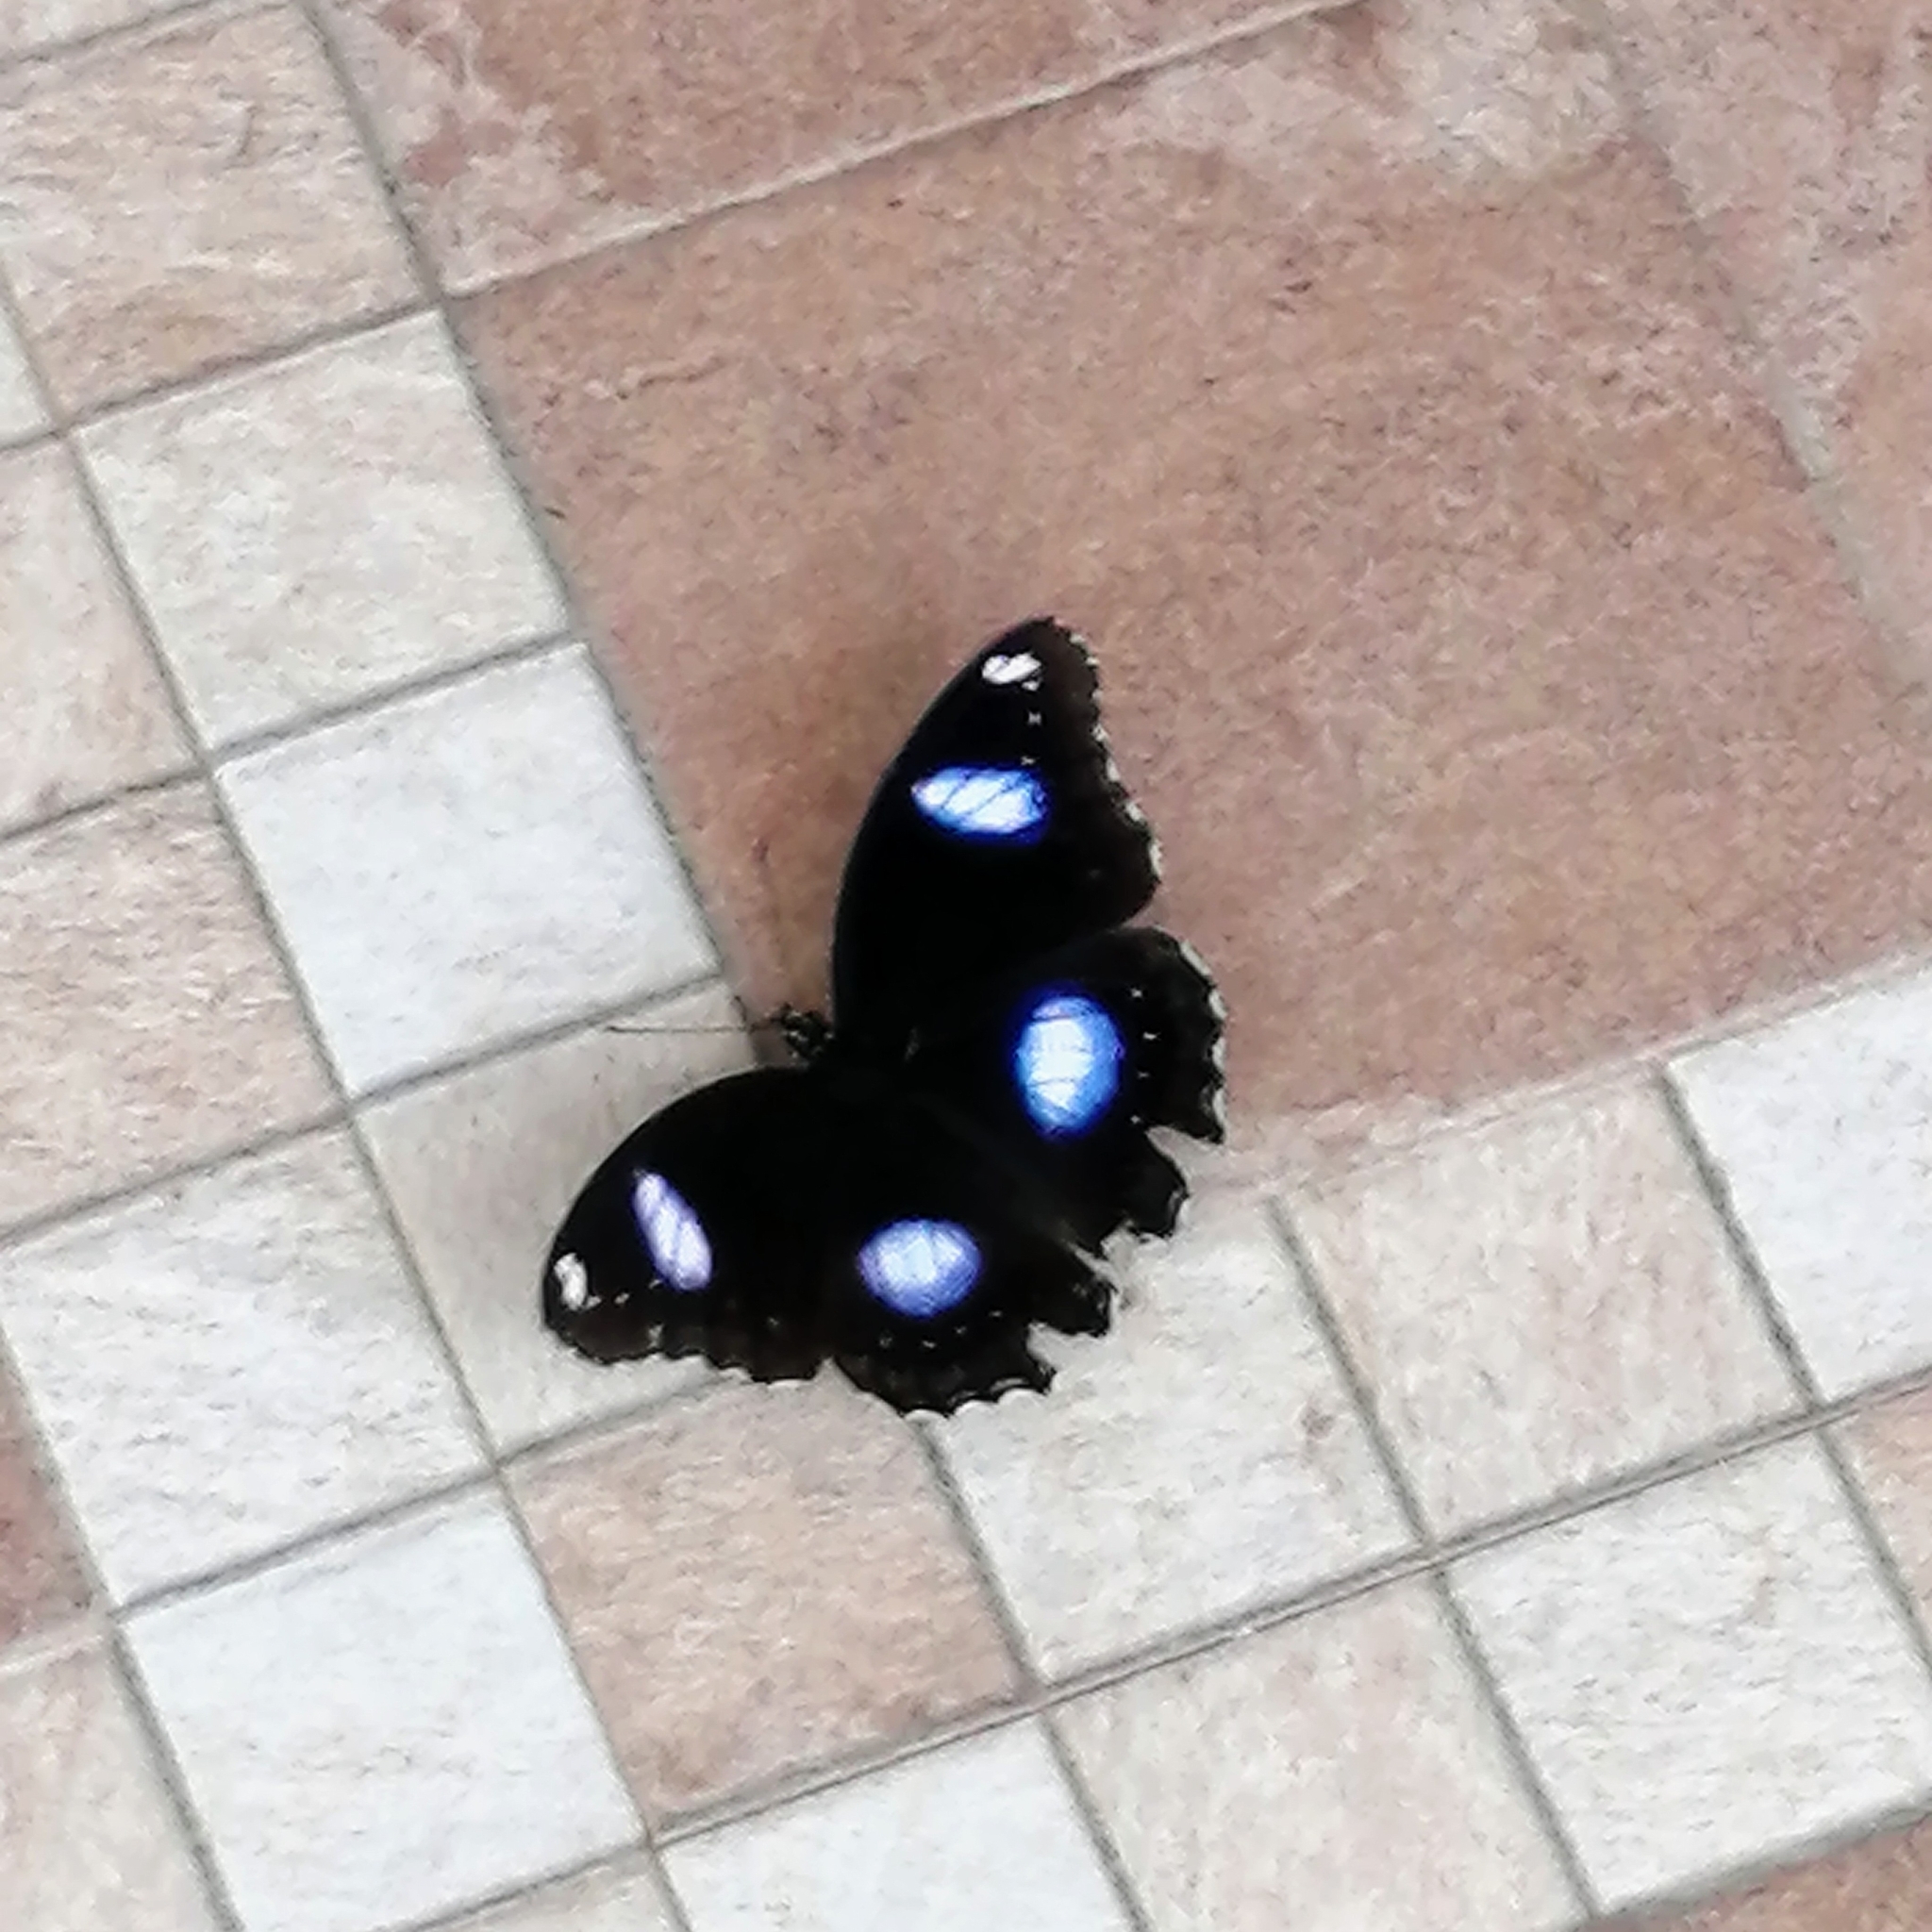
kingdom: Animalia
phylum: Arthropoda
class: Insecta
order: Lepidoptera
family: Nymphalidae
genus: Hypolimnas
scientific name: Hypolimnas bolina
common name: Great eggfly
